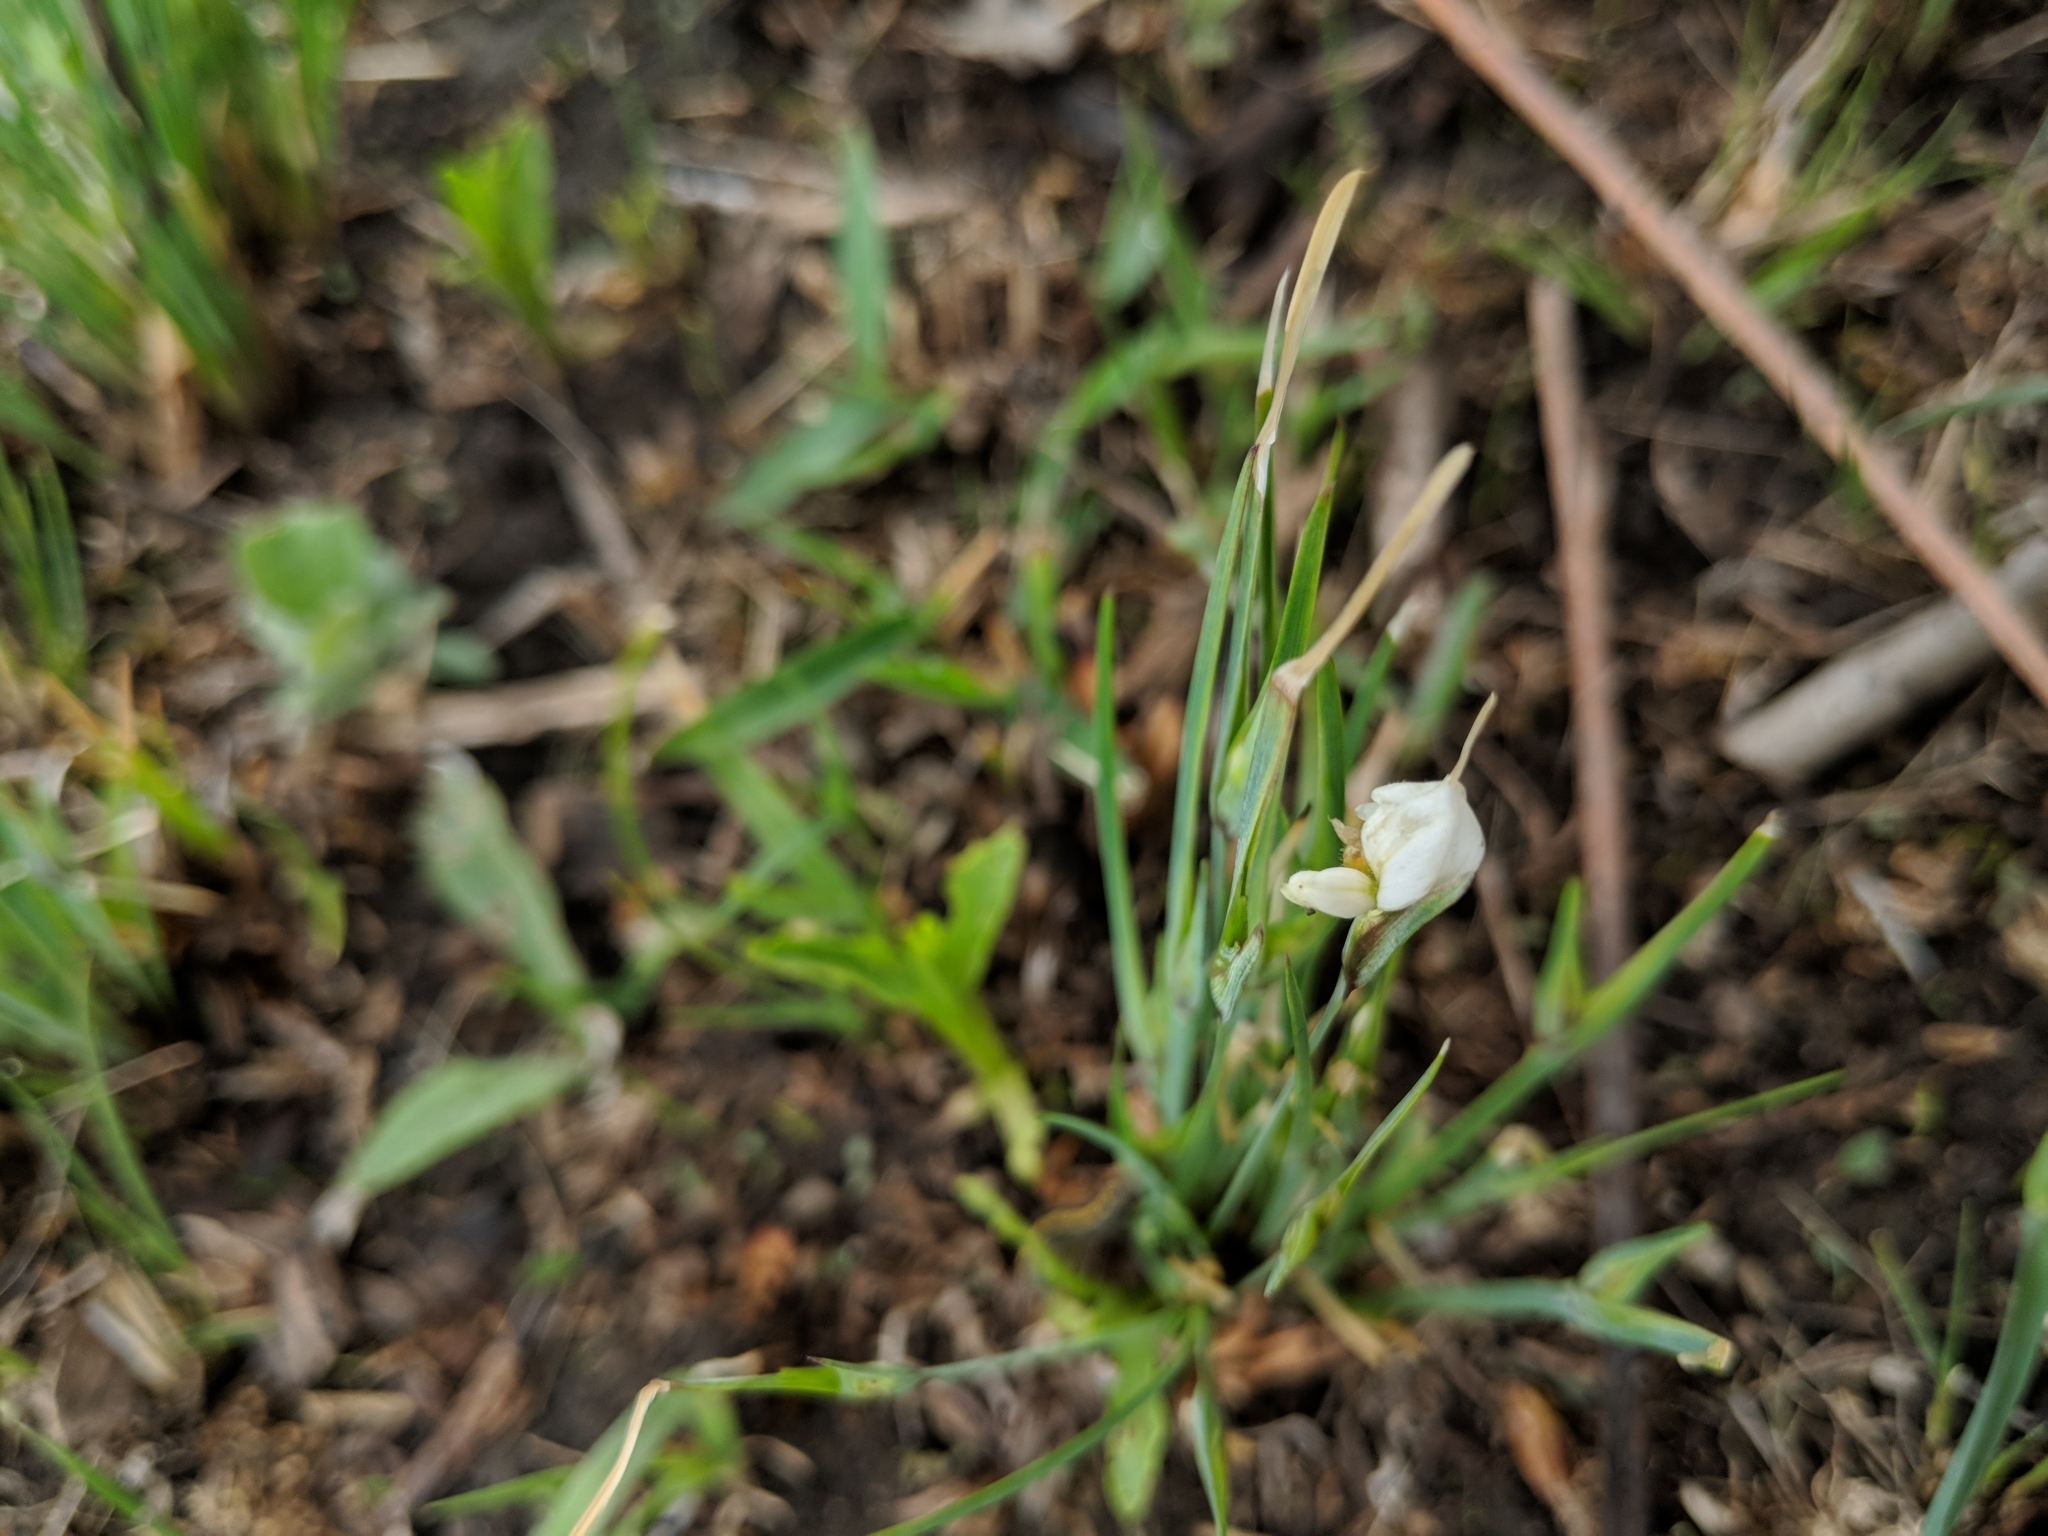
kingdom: Plantae
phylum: Tracheophyta
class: Liliopsida
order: Asparagales
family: Iridaceae
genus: Sisyrinchium
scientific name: Sisyrinchium albidum
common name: Pale blue-eyed-grass
